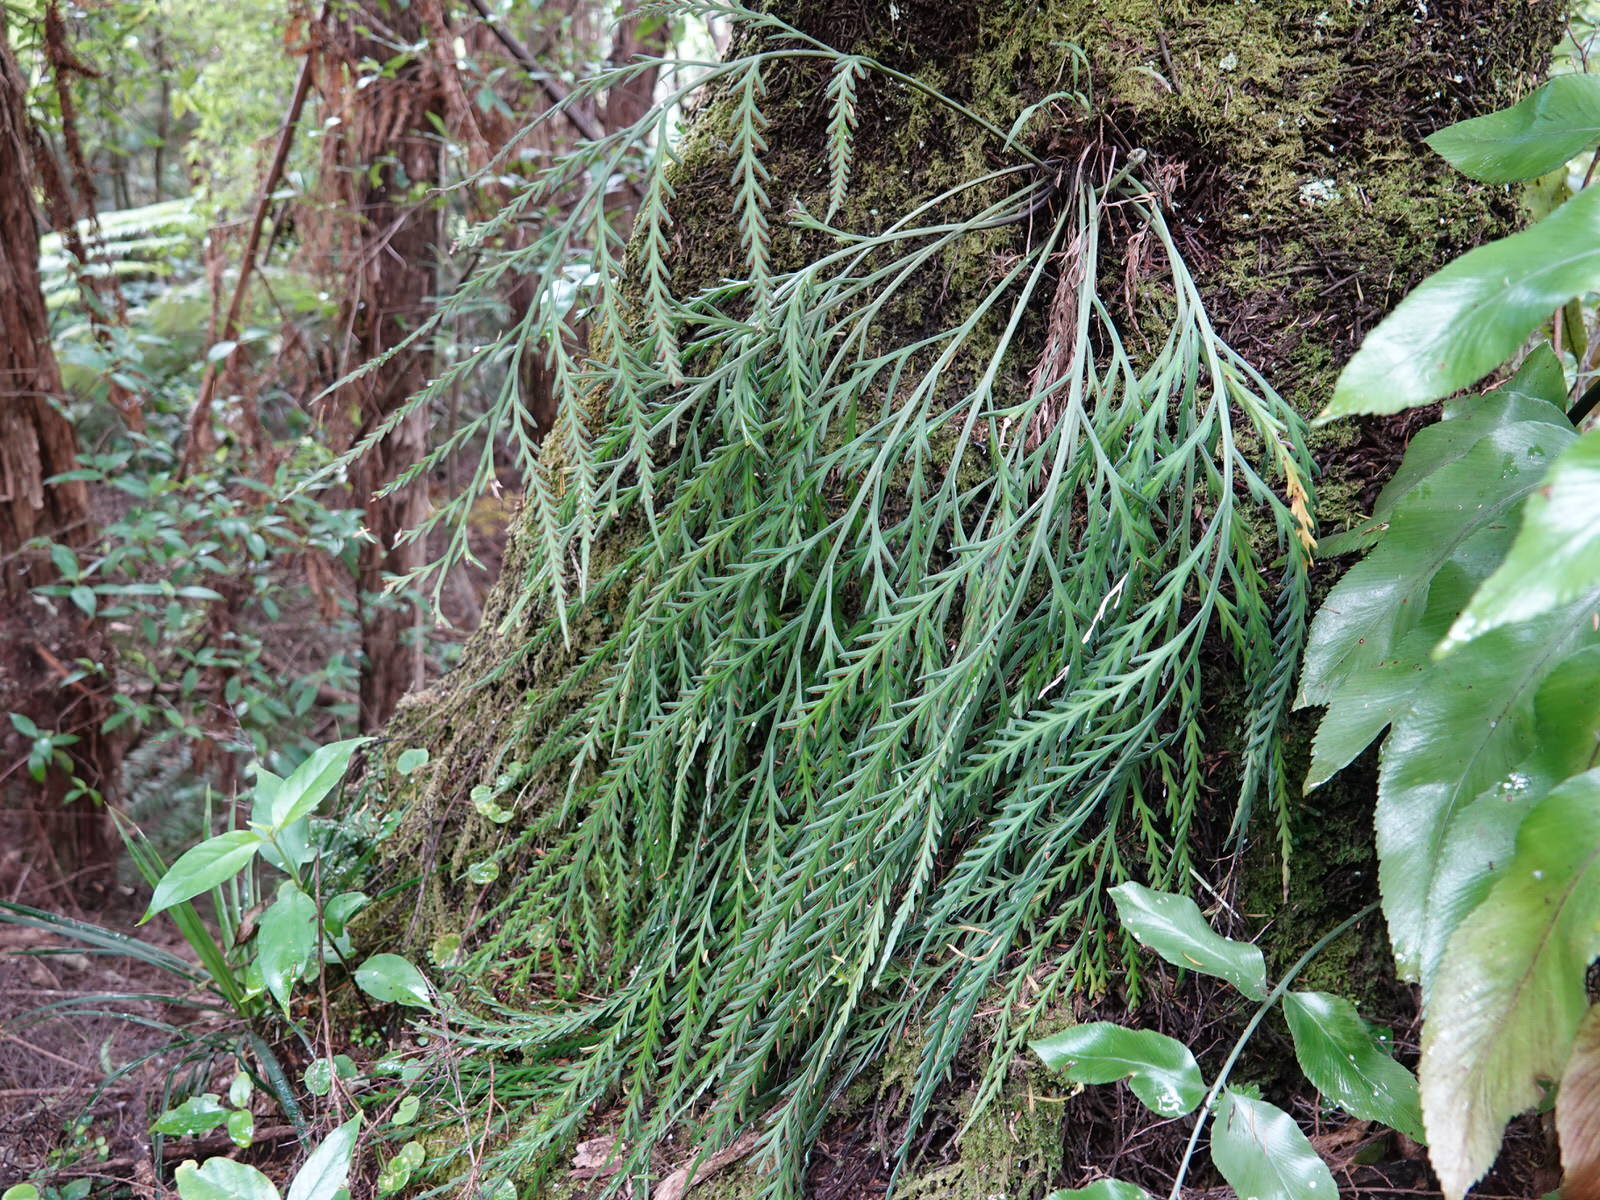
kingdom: Plantae
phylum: Tracheophyta
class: Polypodiopsida
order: Polypodiales
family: Aspleniaceae
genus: Asplenium
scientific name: Asplenium flaccidum
